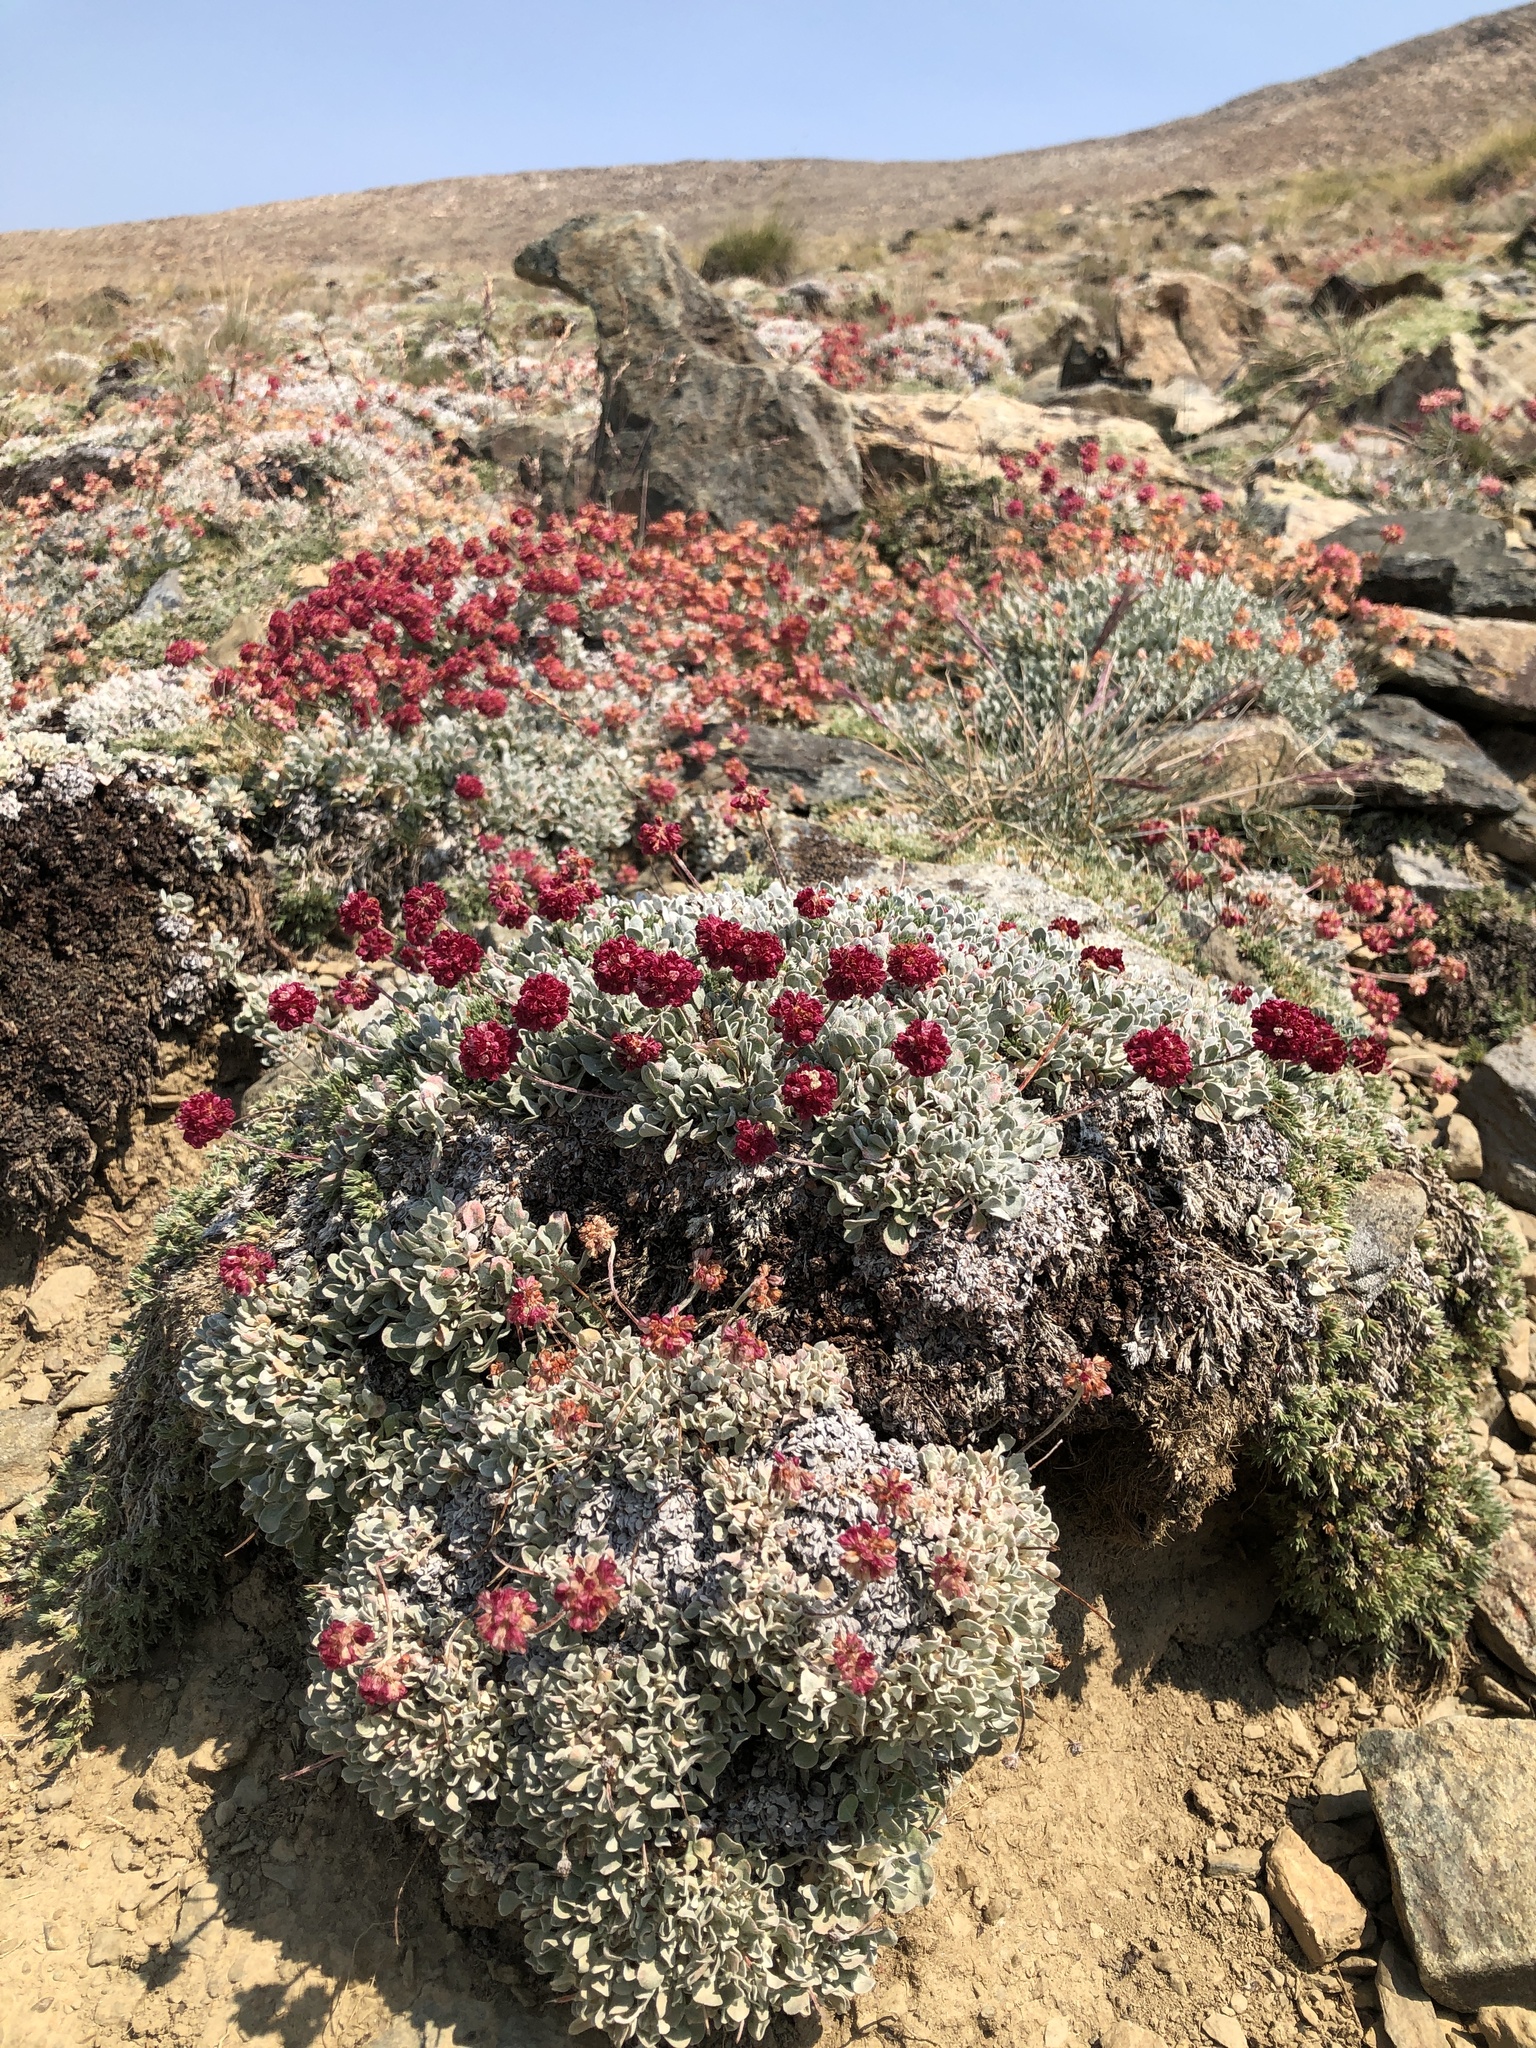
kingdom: Plantae
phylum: Tracheophyta
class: Magnoliopsida
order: Caryophyllales
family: Polygonaceae
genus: Eriogonum
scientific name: Eriogonum ovalifolium
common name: Cushion buckwheat
